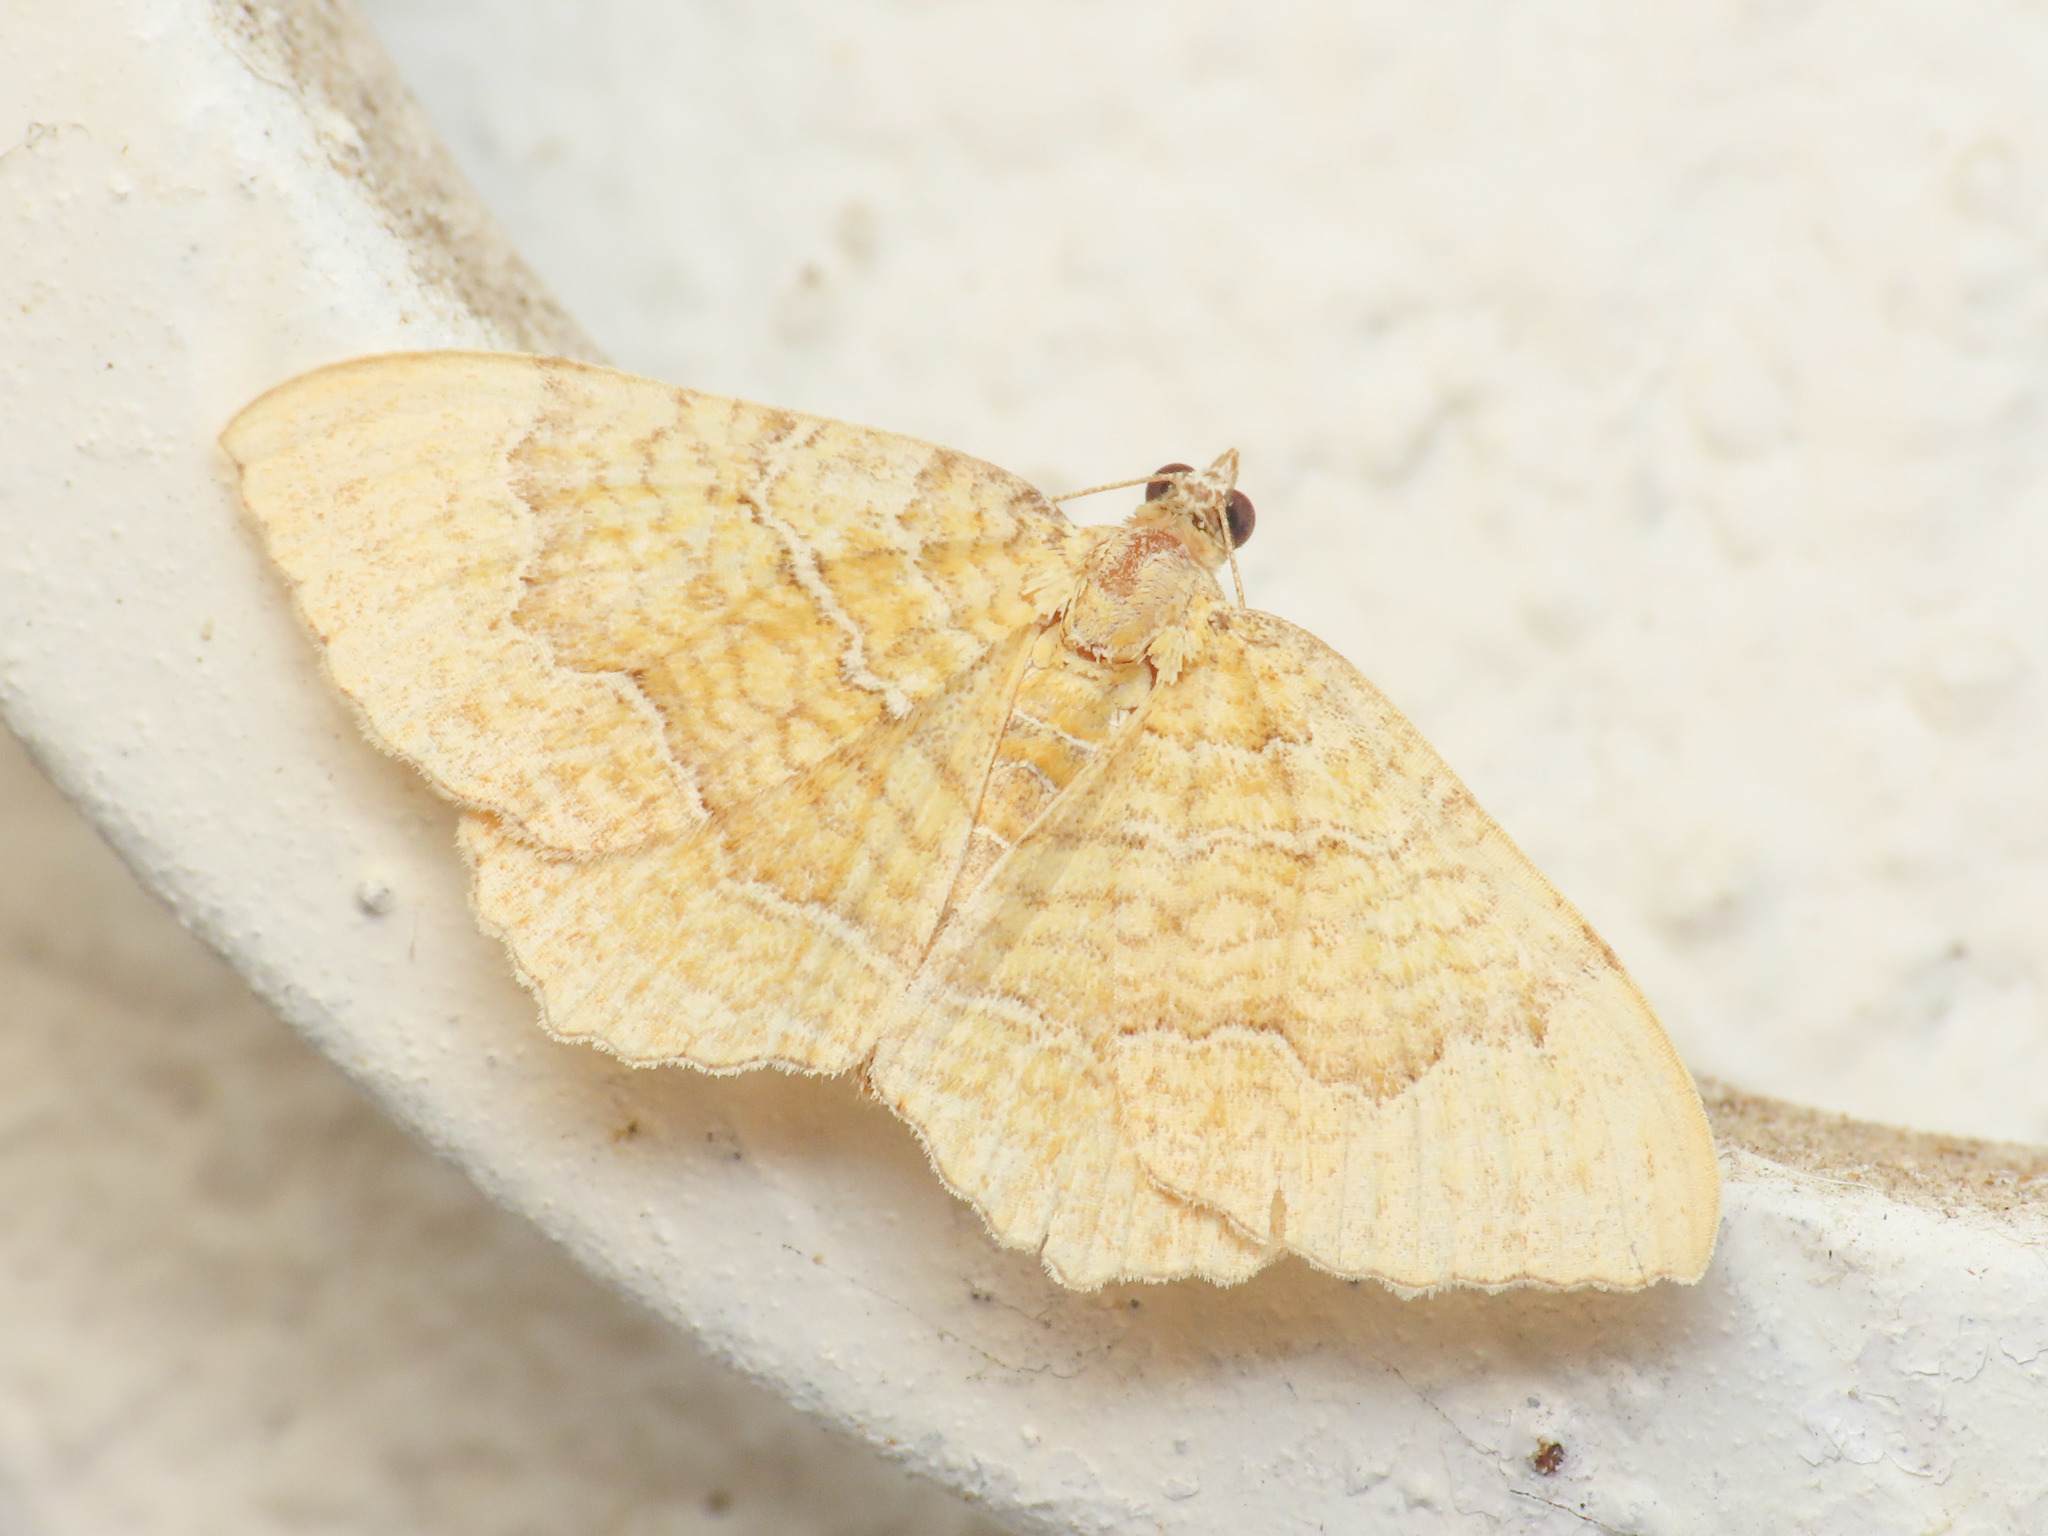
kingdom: Animalia
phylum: Arthropoda
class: Insecta
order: Lepidoptera
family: Geometridae
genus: Camptogramma
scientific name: Camptogramma bilineata
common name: Yellow shell
